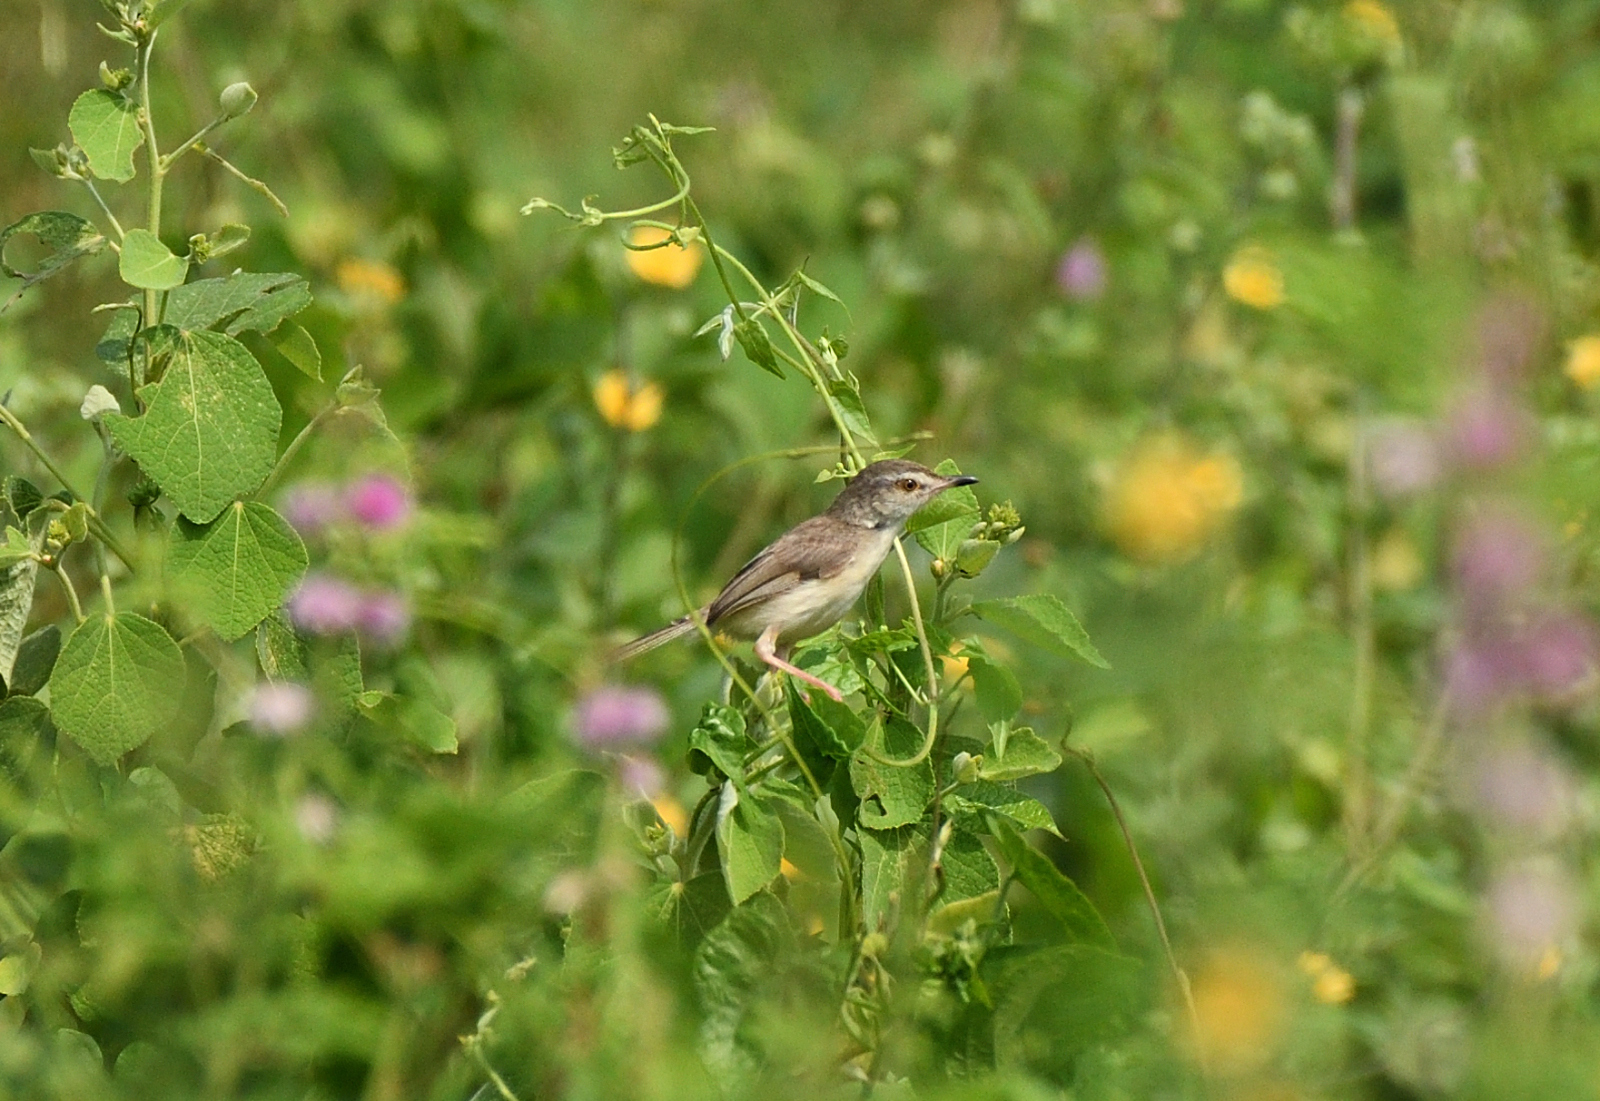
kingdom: Animalia
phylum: Chordata
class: Aves
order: Passeriformes
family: Cisticolidae
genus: Prinia
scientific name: Prinia inornata
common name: Plain prinia
